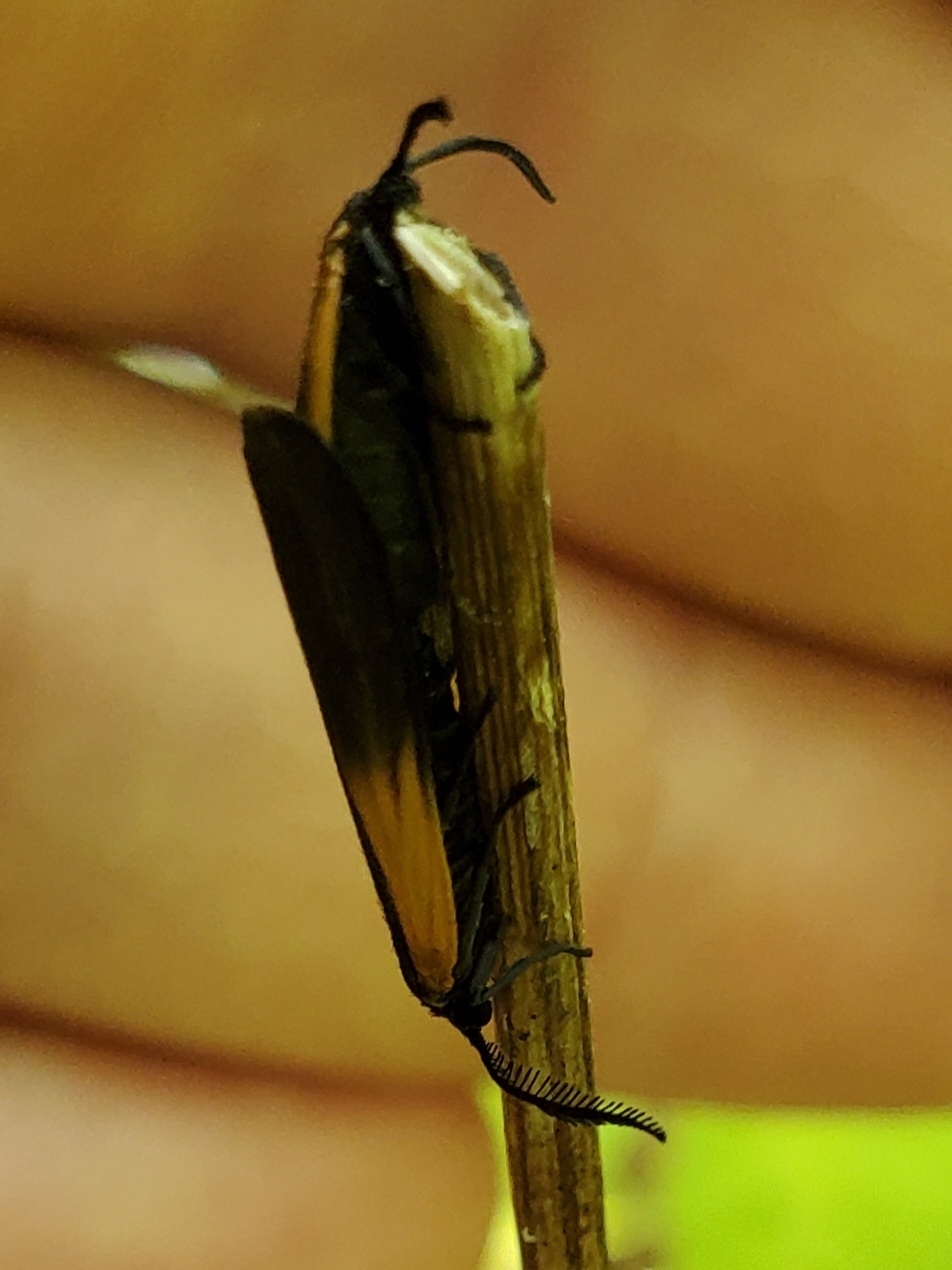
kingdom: Animalia
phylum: Arthropoda
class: Insecta
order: Lepidoptera
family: Zygaenidae
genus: Malthaca
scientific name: Malthaca dimidiata
